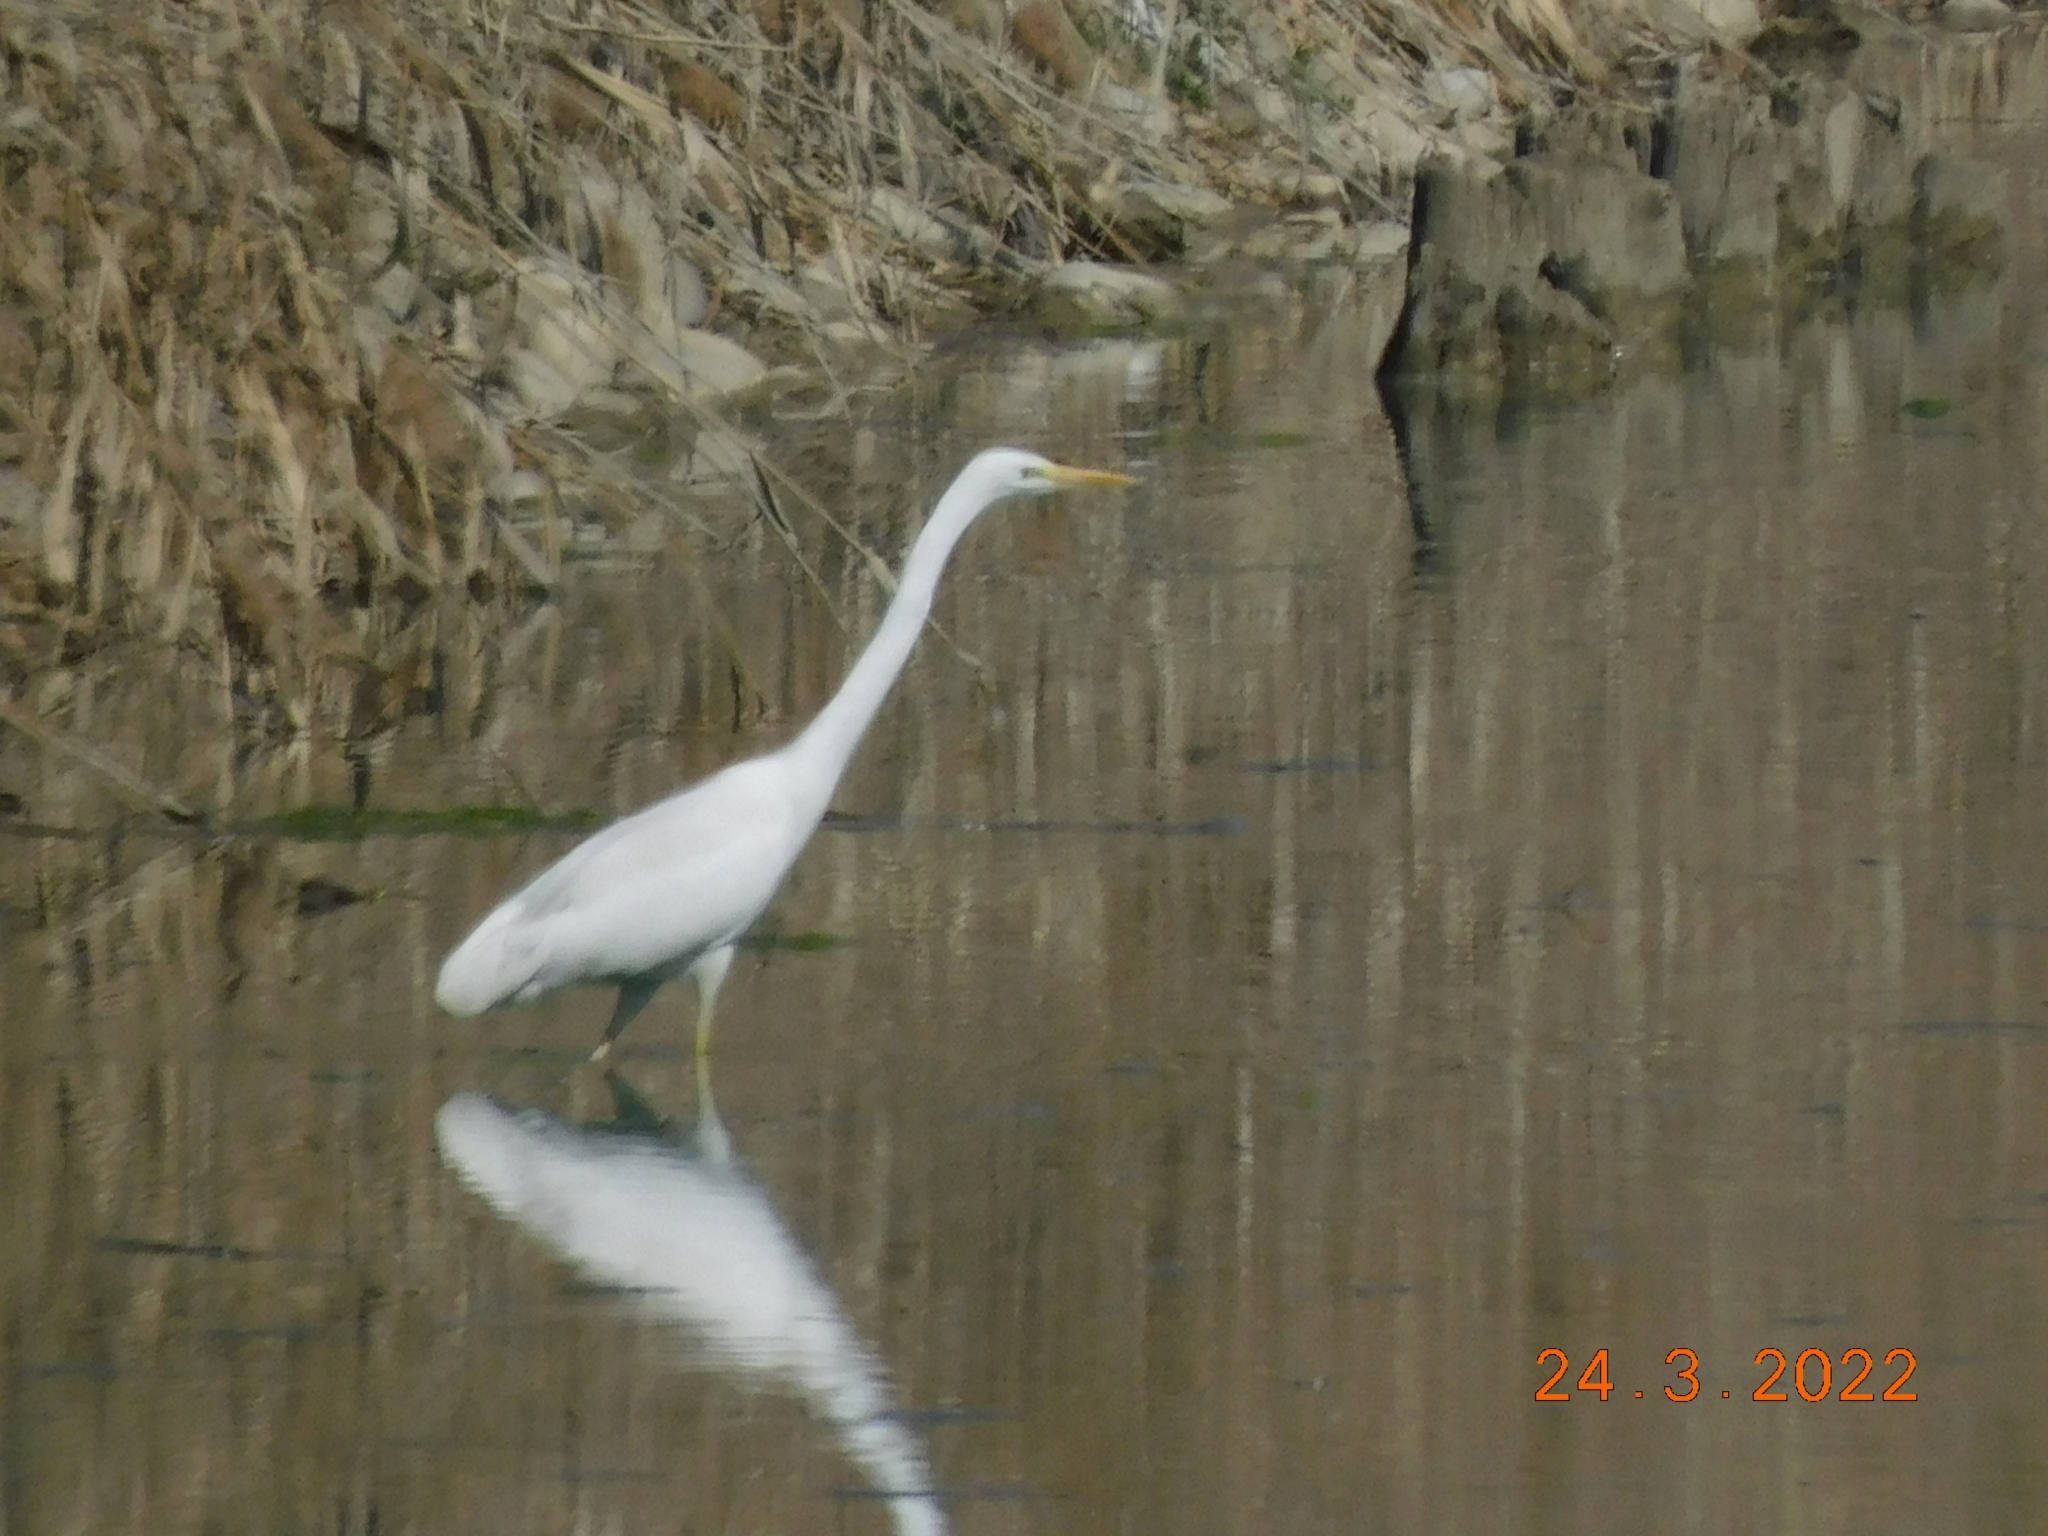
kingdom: Animalia
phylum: Chordata
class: Aves
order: Pelecaniformes
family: Ardeidae
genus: Ardea
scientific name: Ardea alba
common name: Great egret
